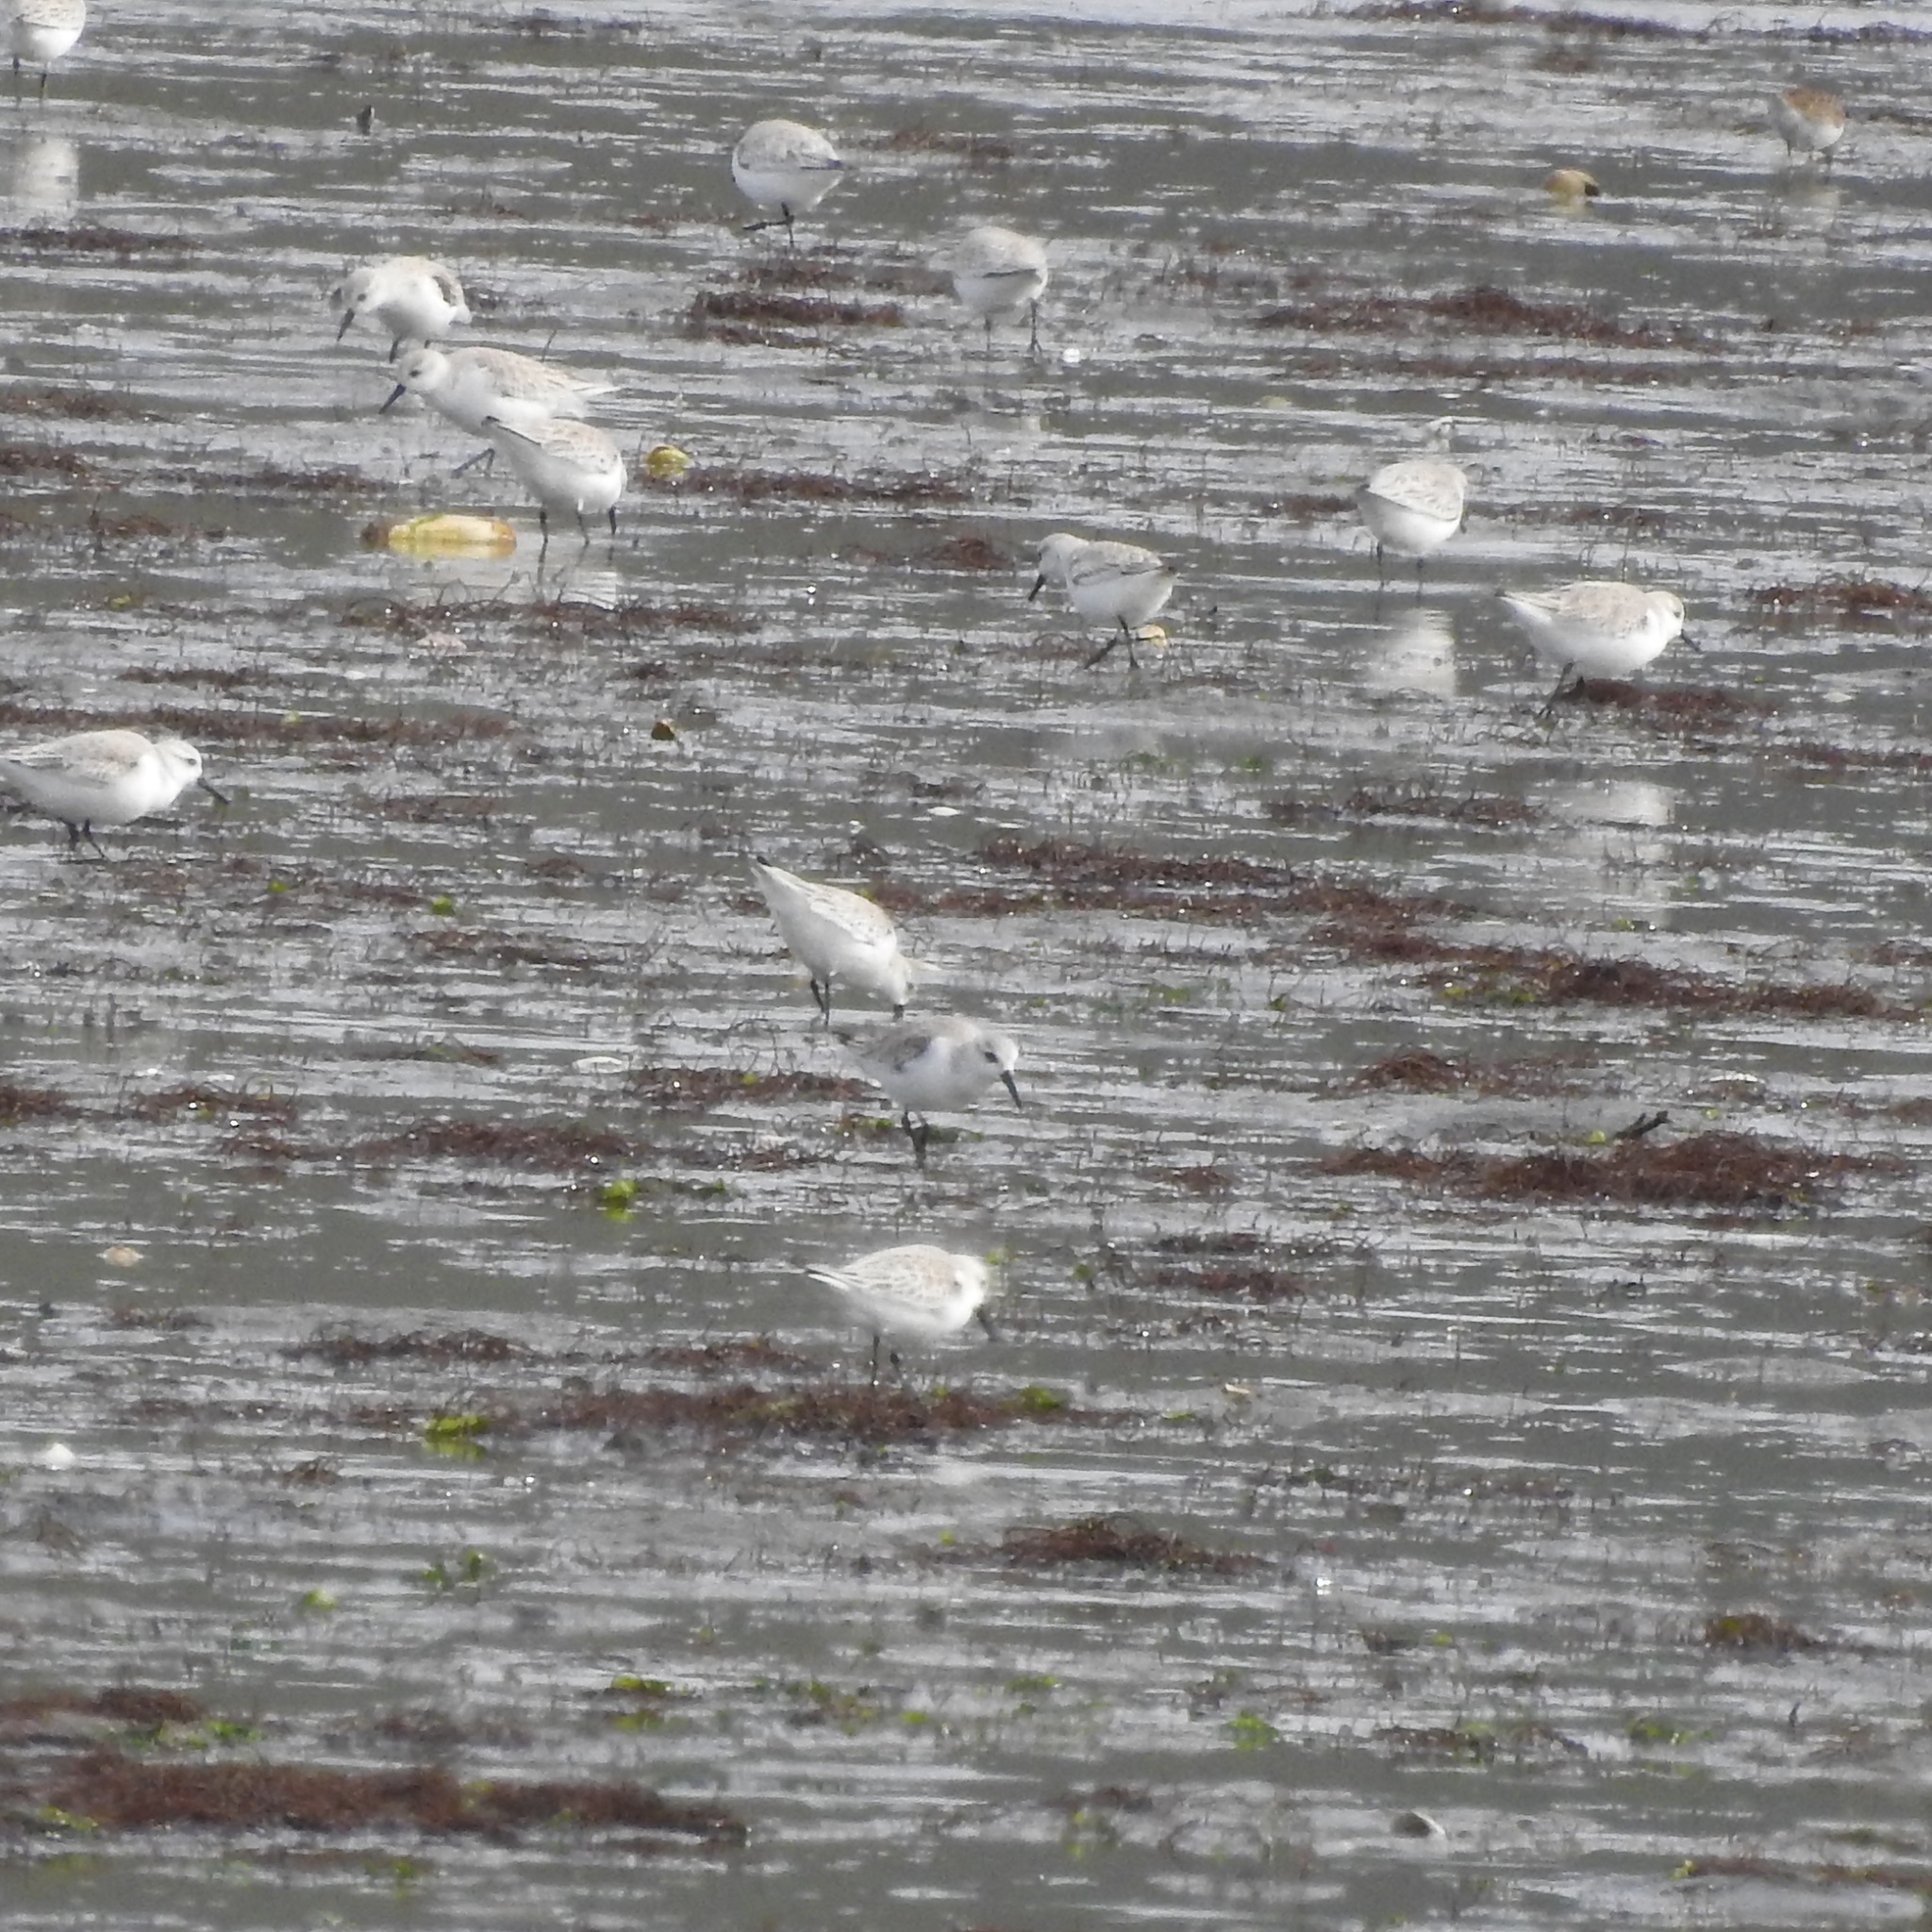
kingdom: Animalia
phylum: Chordata
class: Aves
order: Charadriiformes
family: Scolopacidae
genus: Calidris
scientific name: Calidris alba
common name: Sanderling
